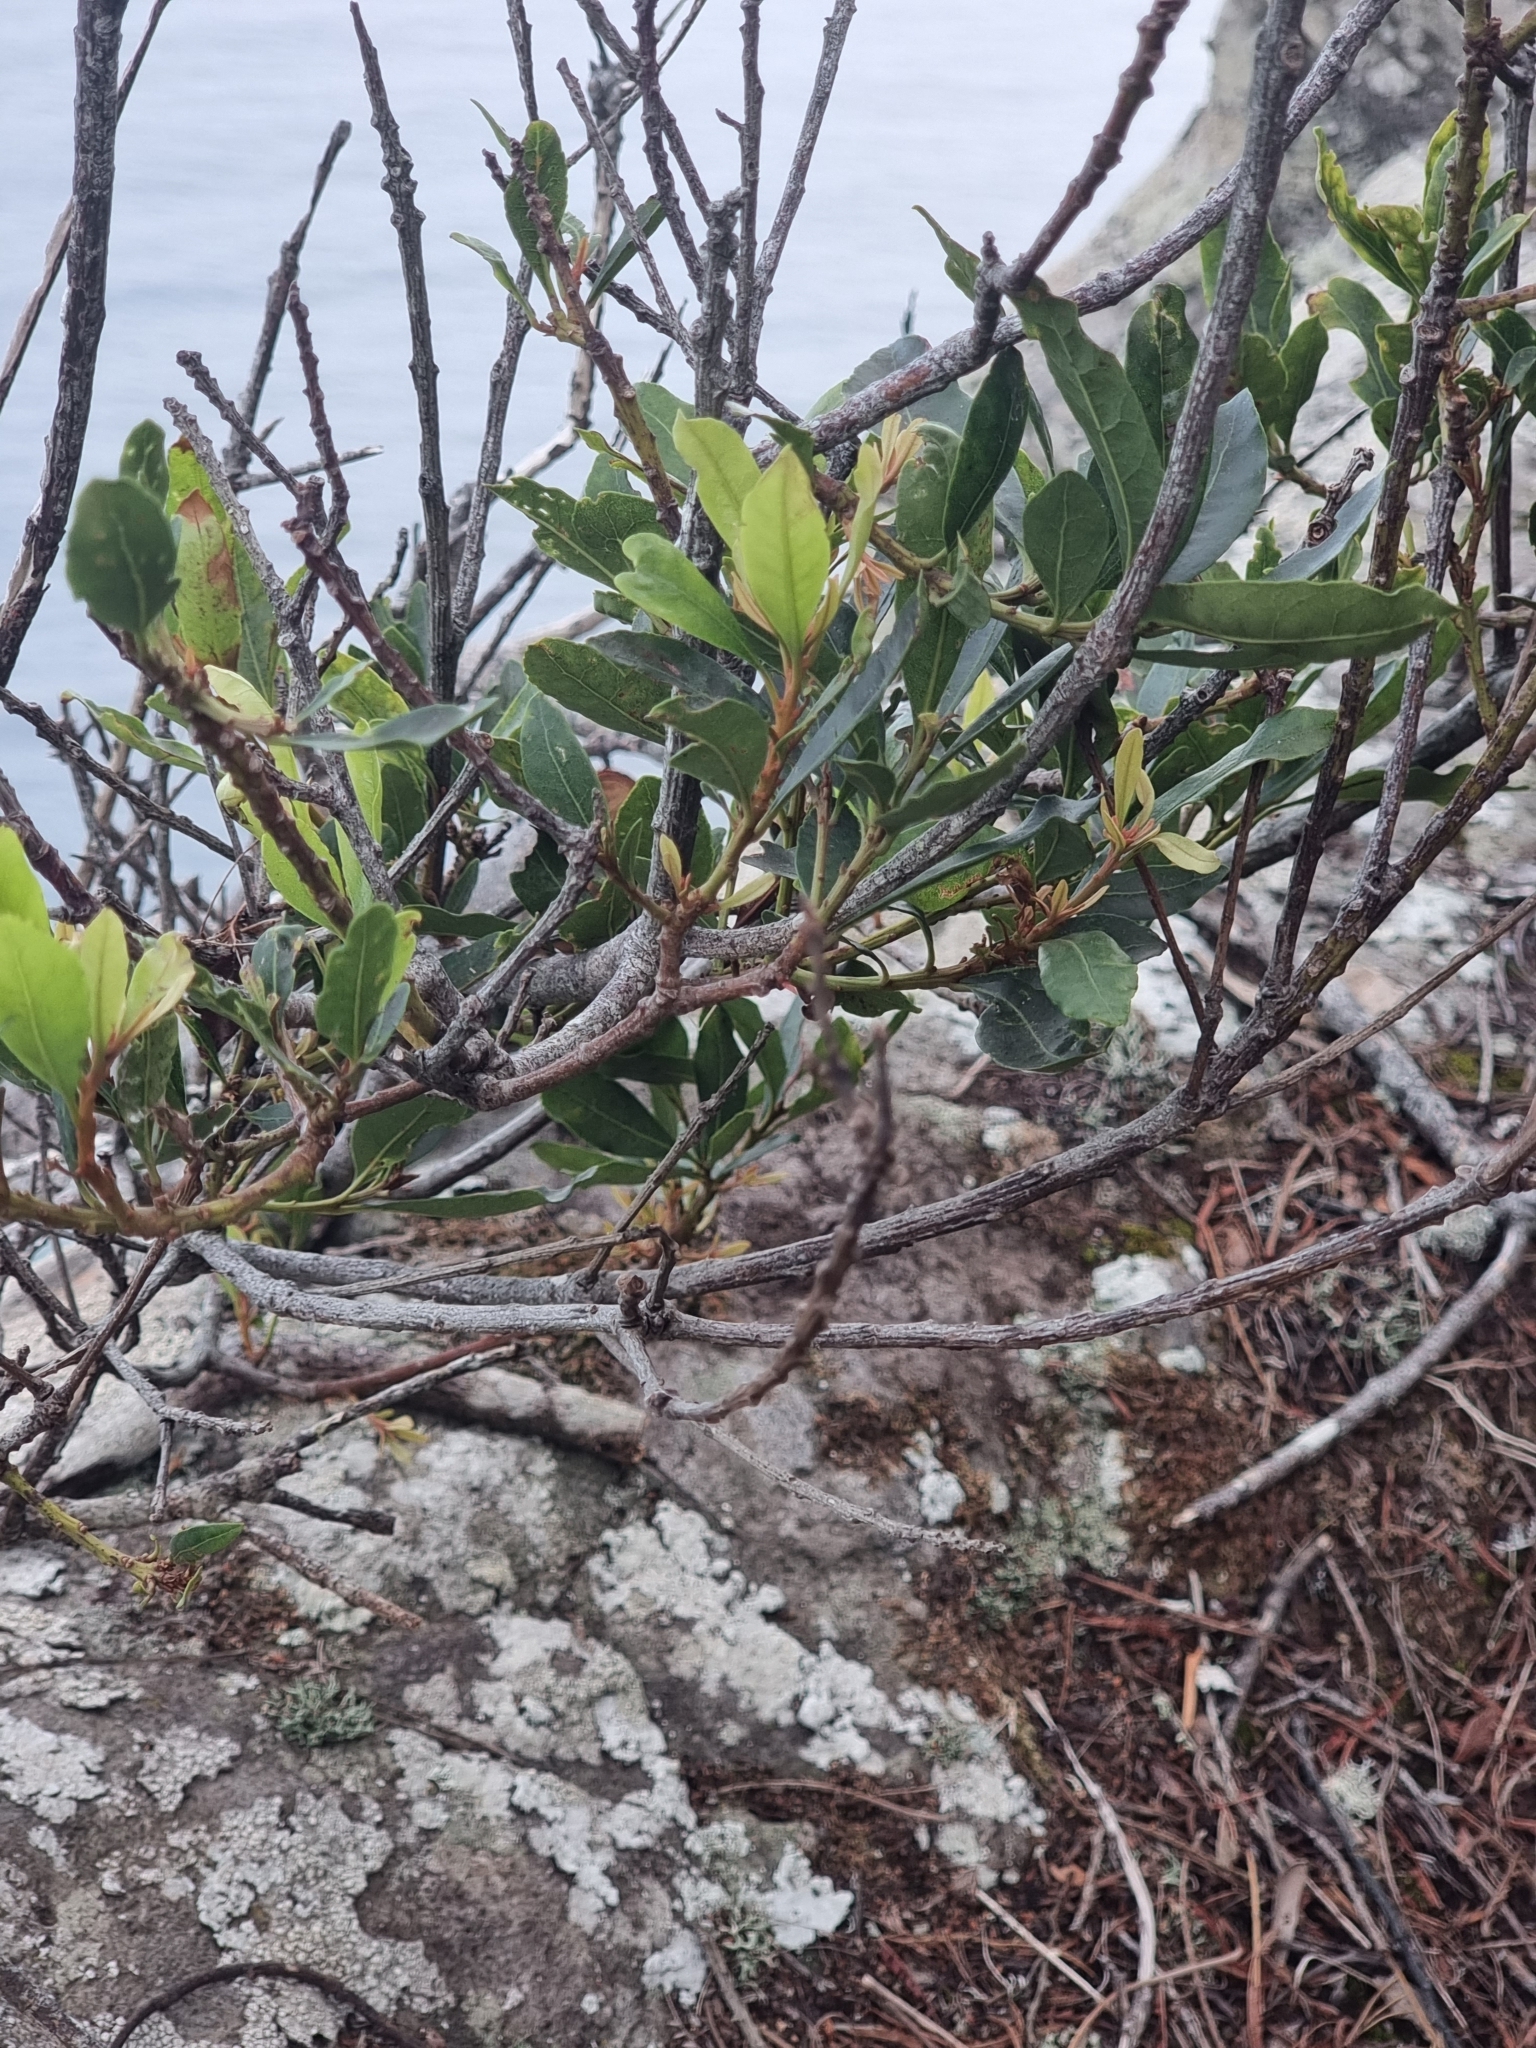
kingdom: Plantae
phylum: Tracheophyta
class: Magnoliopsida
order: Fagales
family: Myricaceae
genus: Morella
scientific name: Morella faya
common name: Firetree
